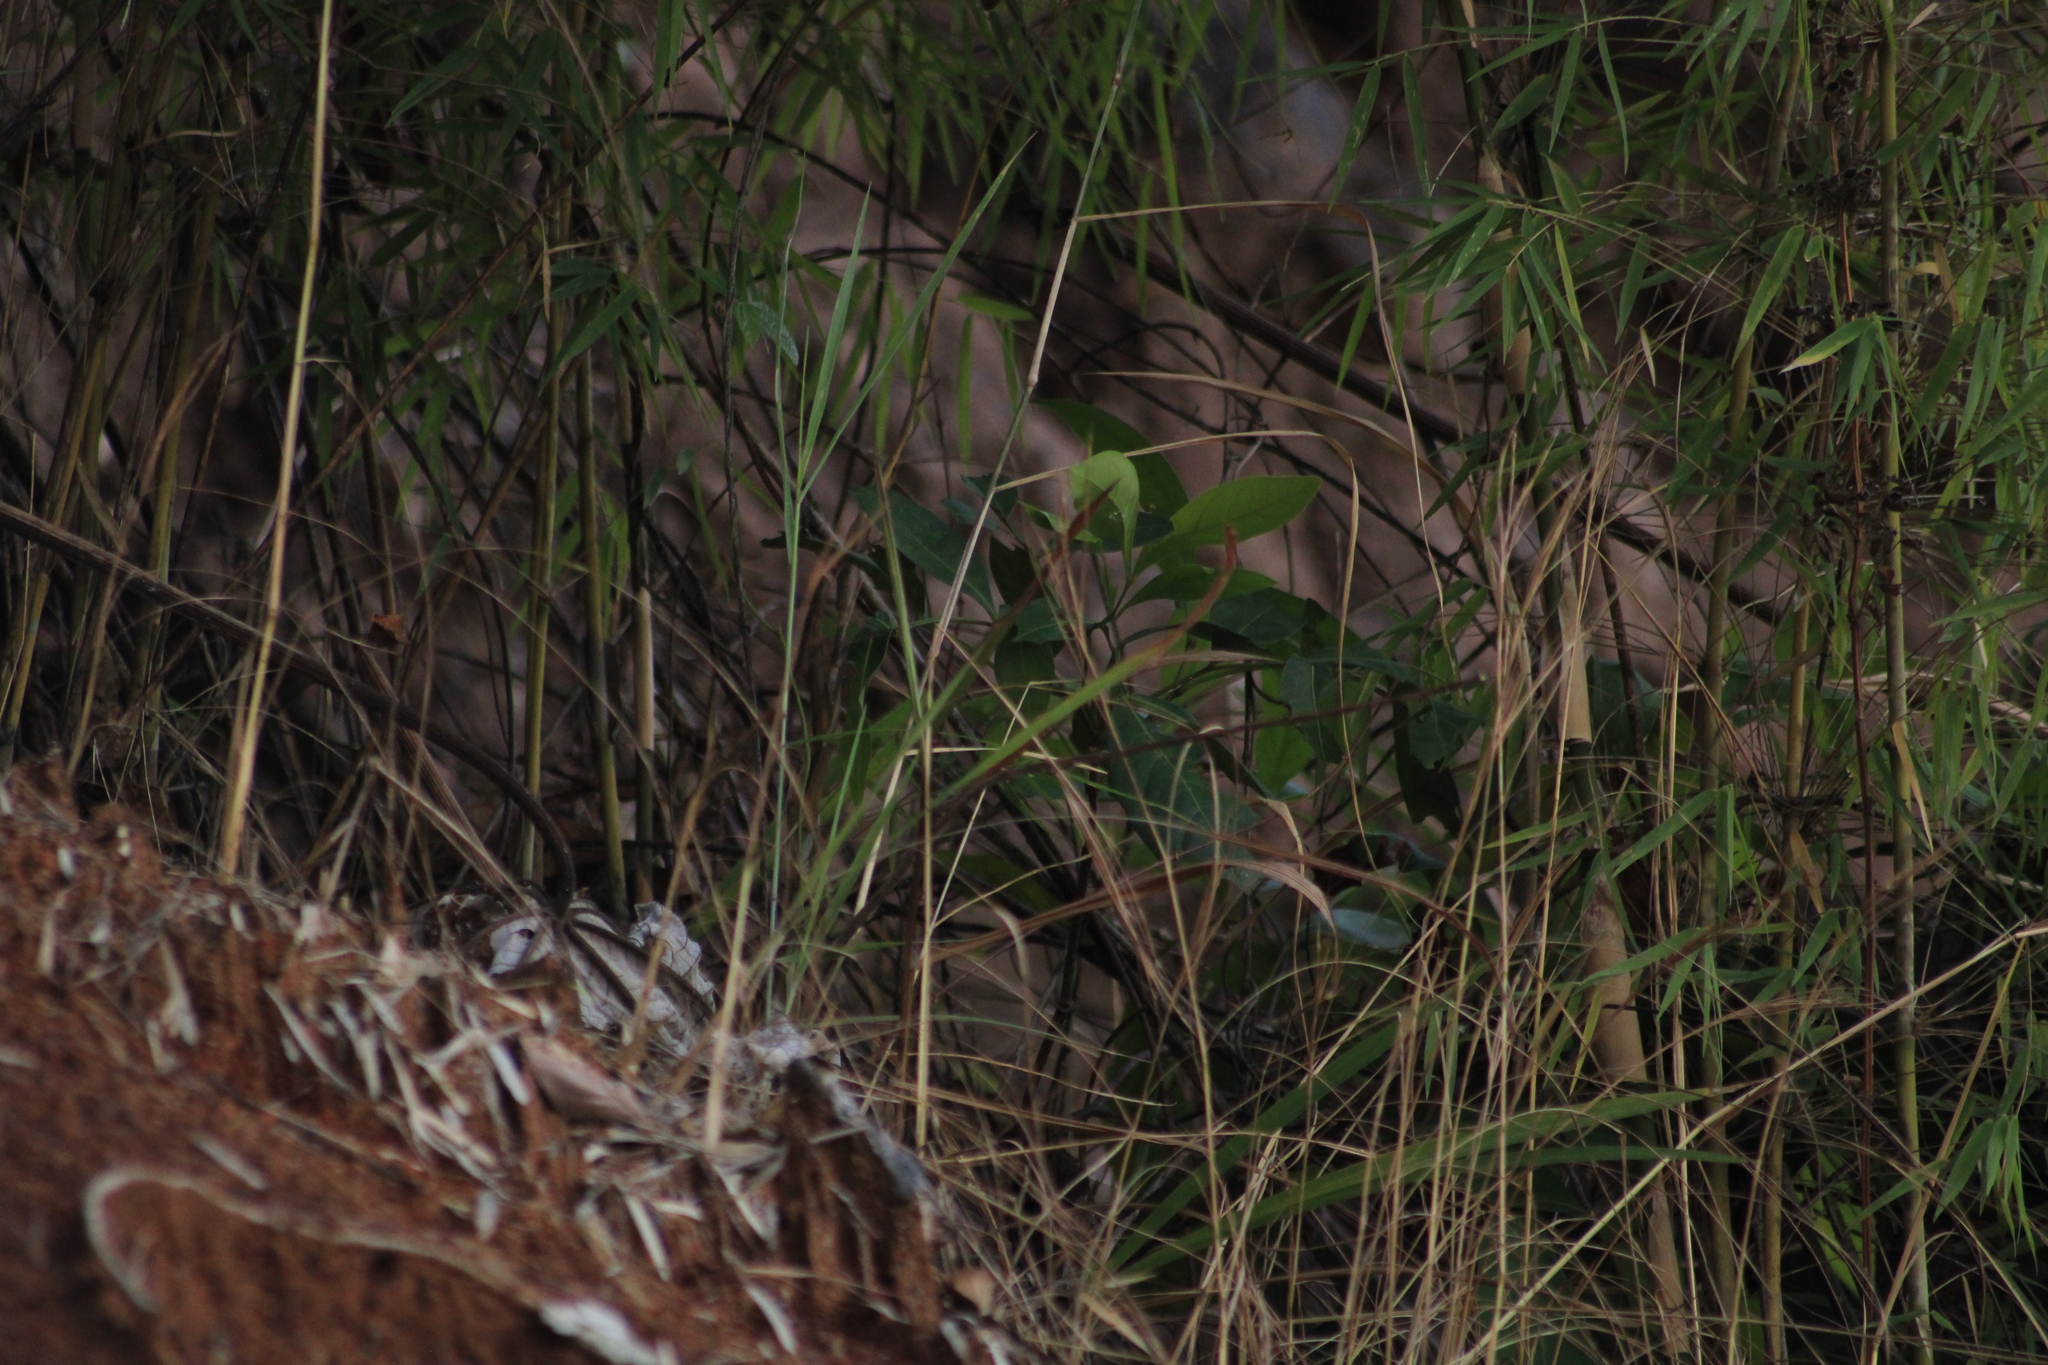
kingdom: Plantae
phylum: Tracheophyta
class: Liliopsida
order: Poales
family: Poaceae
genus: Rhipidocladum
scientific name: Rhipidocladum racemiflorum
